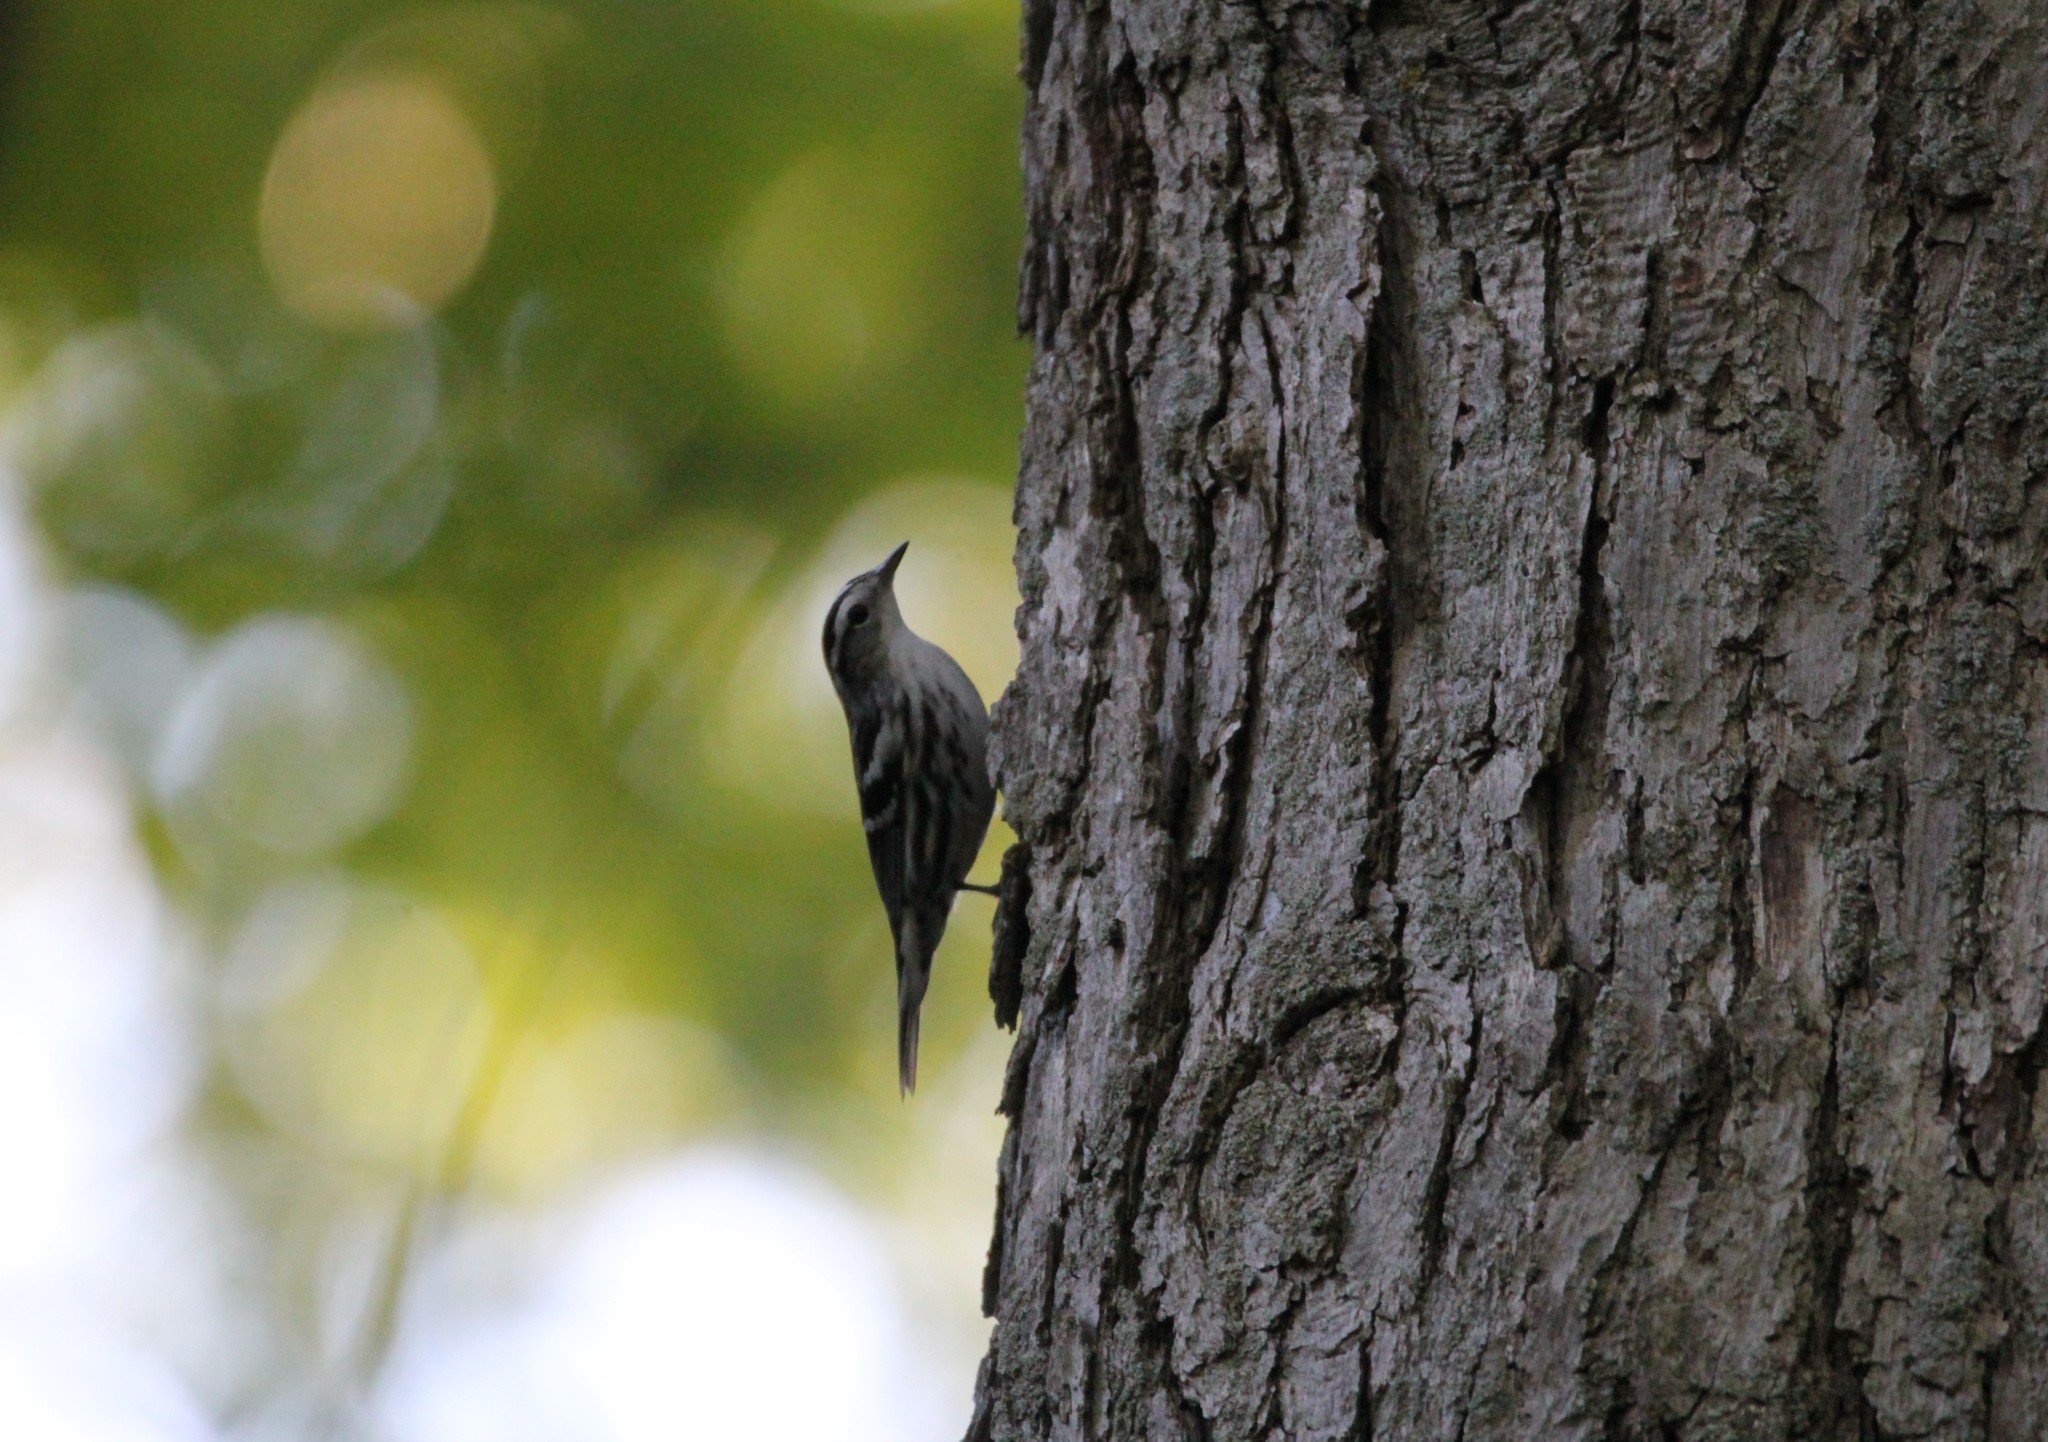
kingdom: Animalia
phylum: Chordata
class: Aves
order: Passeriformes
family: Parulidae
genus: Mniotilta
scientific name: Mniotilta varia
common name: Black-and-white warbler
